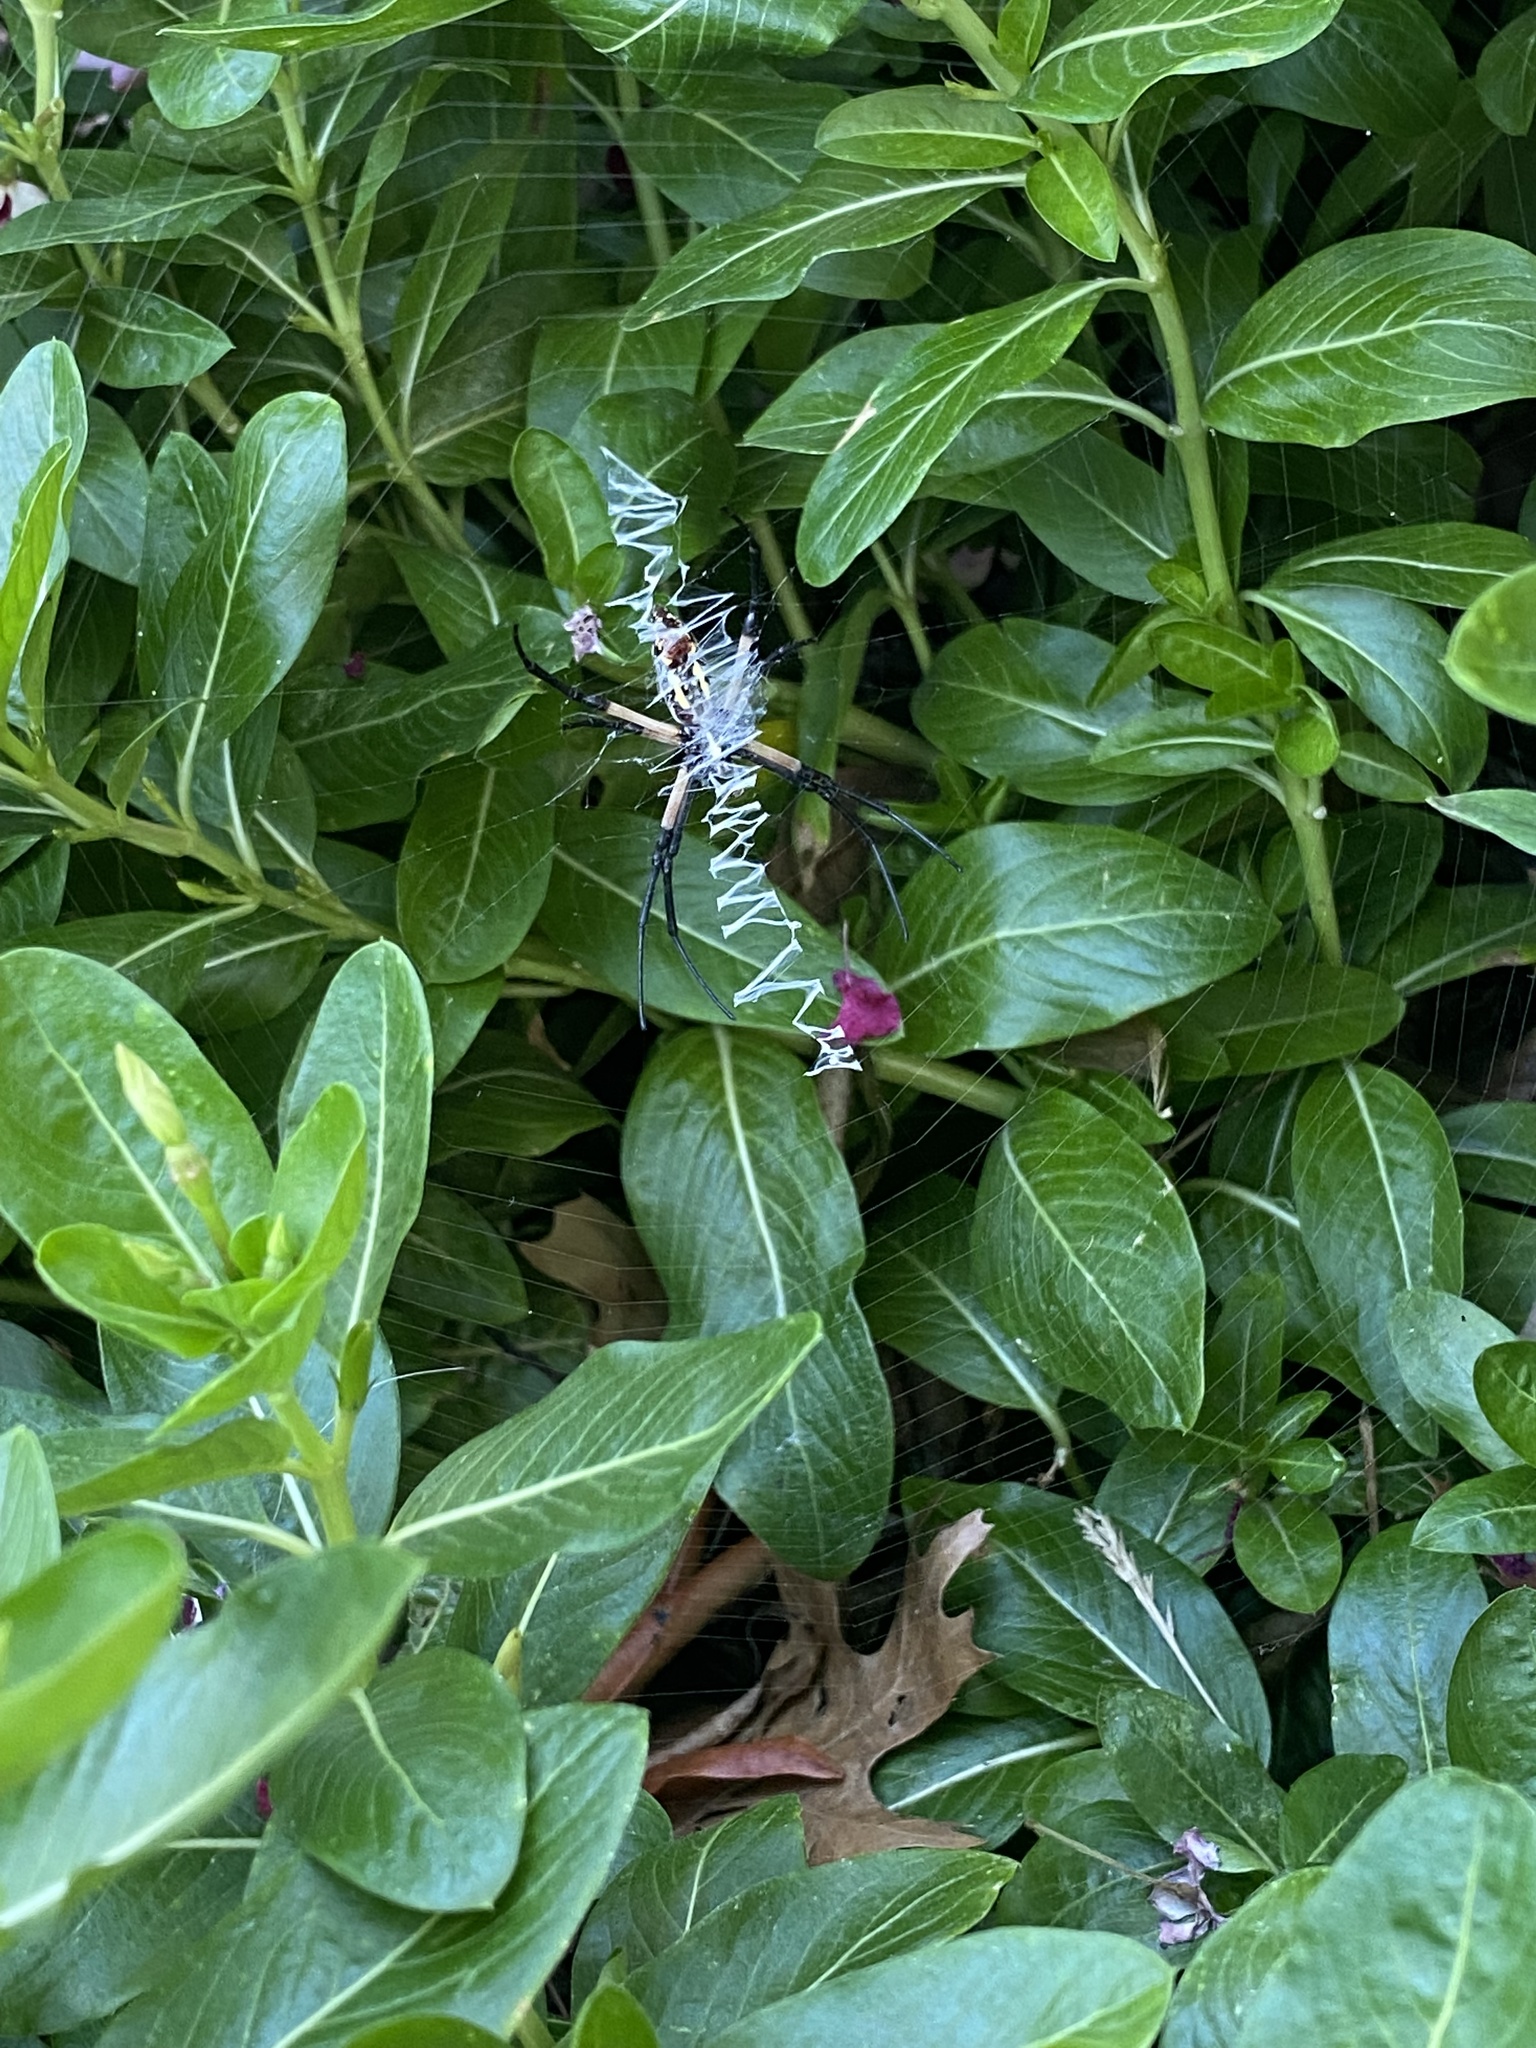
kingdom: Animalia
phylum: Arthropoda
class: Arachnida
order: Araneae
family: Araneidae
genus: Argiope
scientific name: Argiope aurantia
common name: Orb weavers
